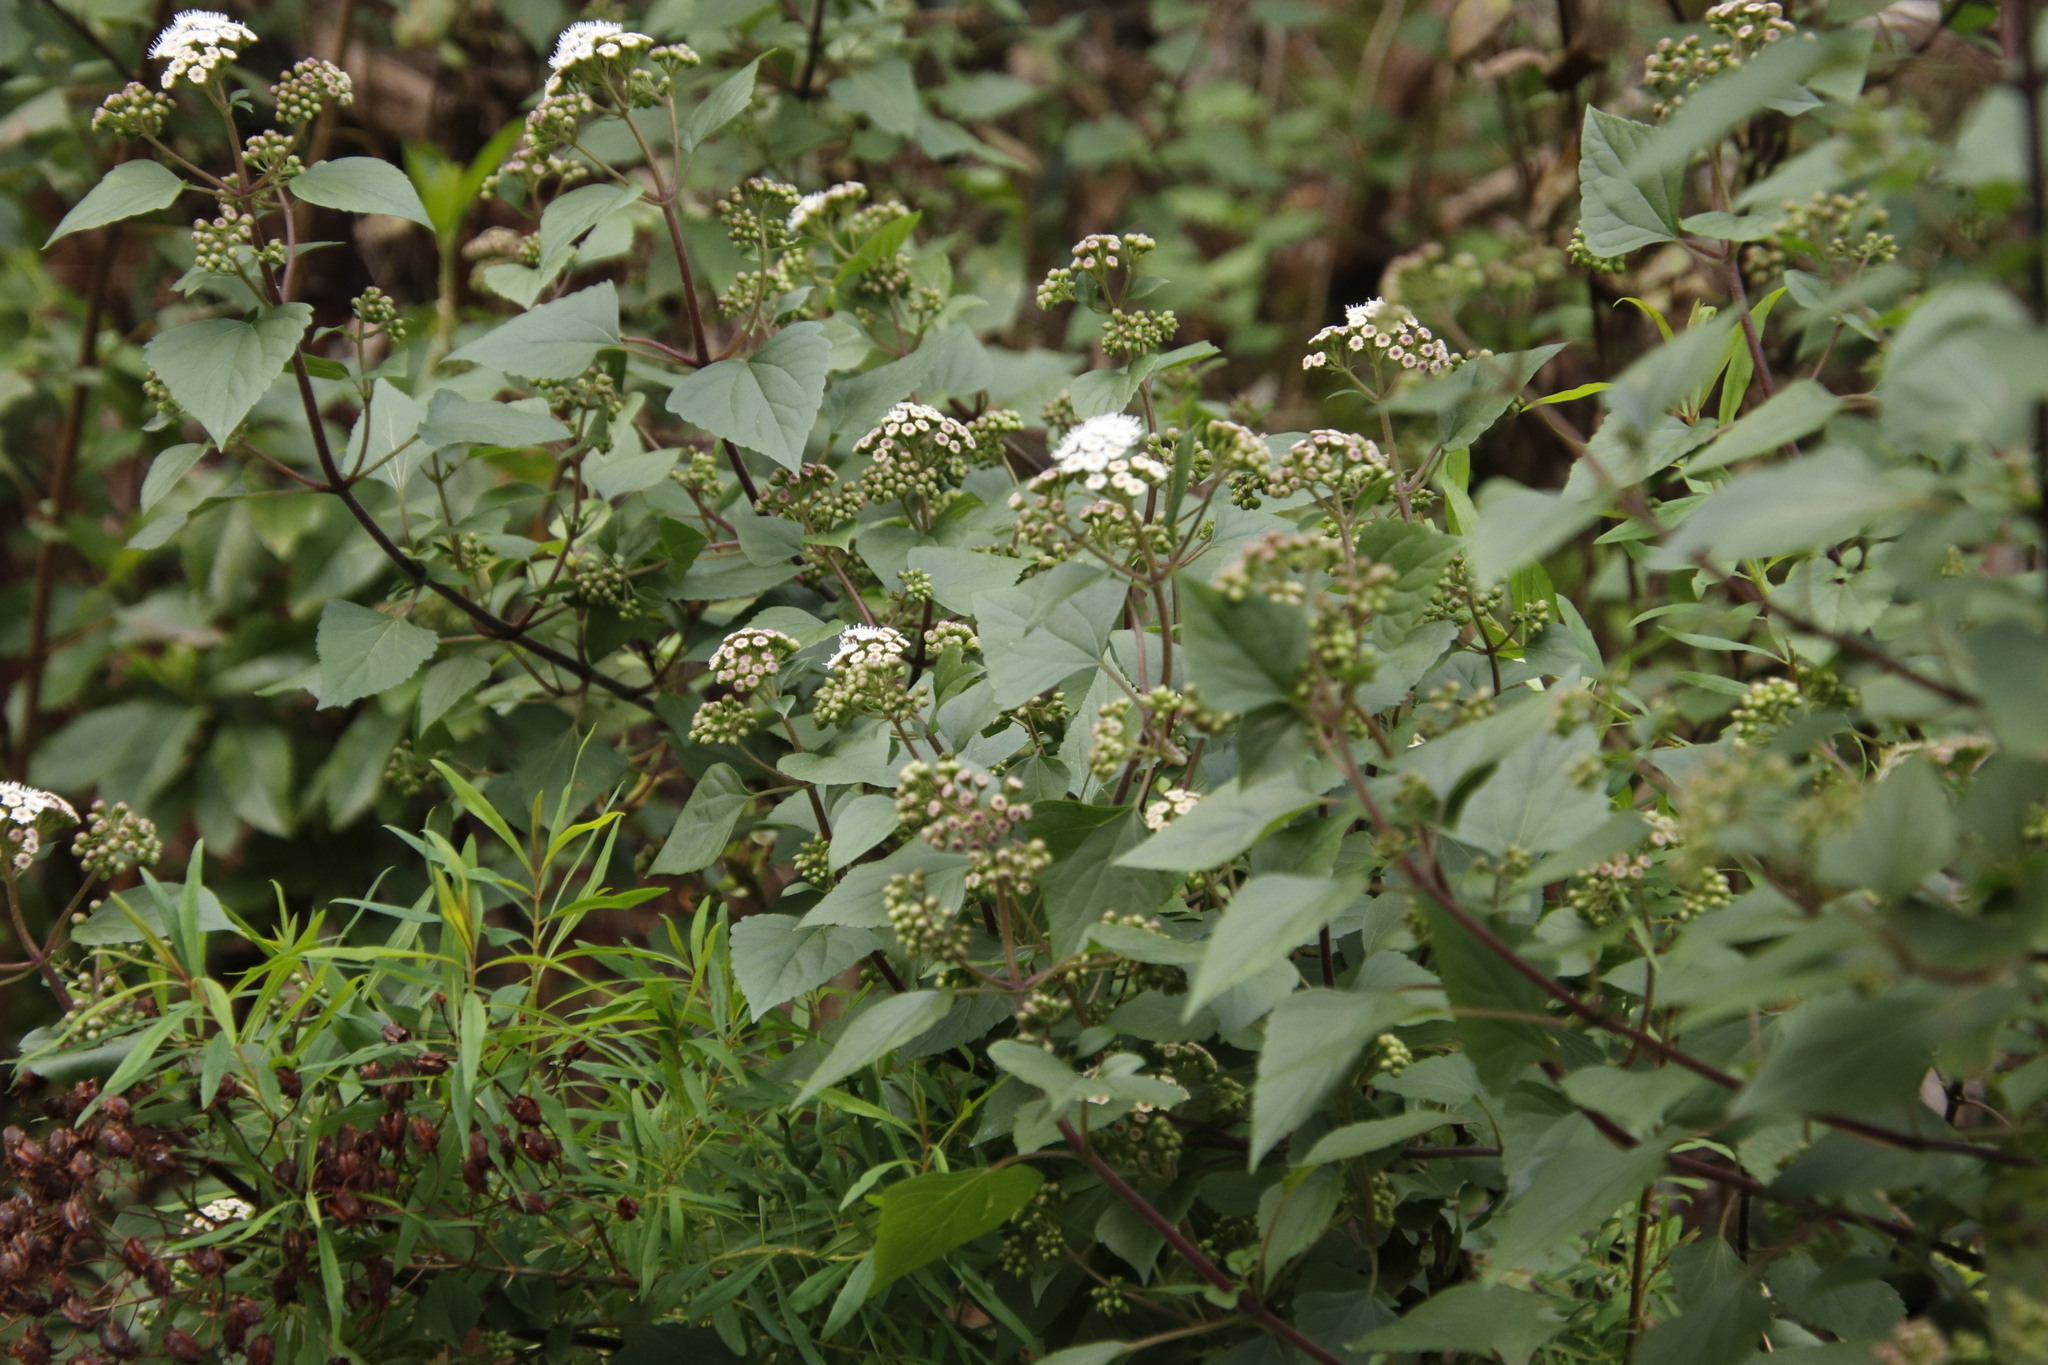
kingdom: Plantae
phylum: Tracheophyta
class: Magnoliopsida
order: Asterales
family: Asteraceae
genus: Ageratina
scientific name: Ageratina adenophora
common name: Sticky snakeroot
